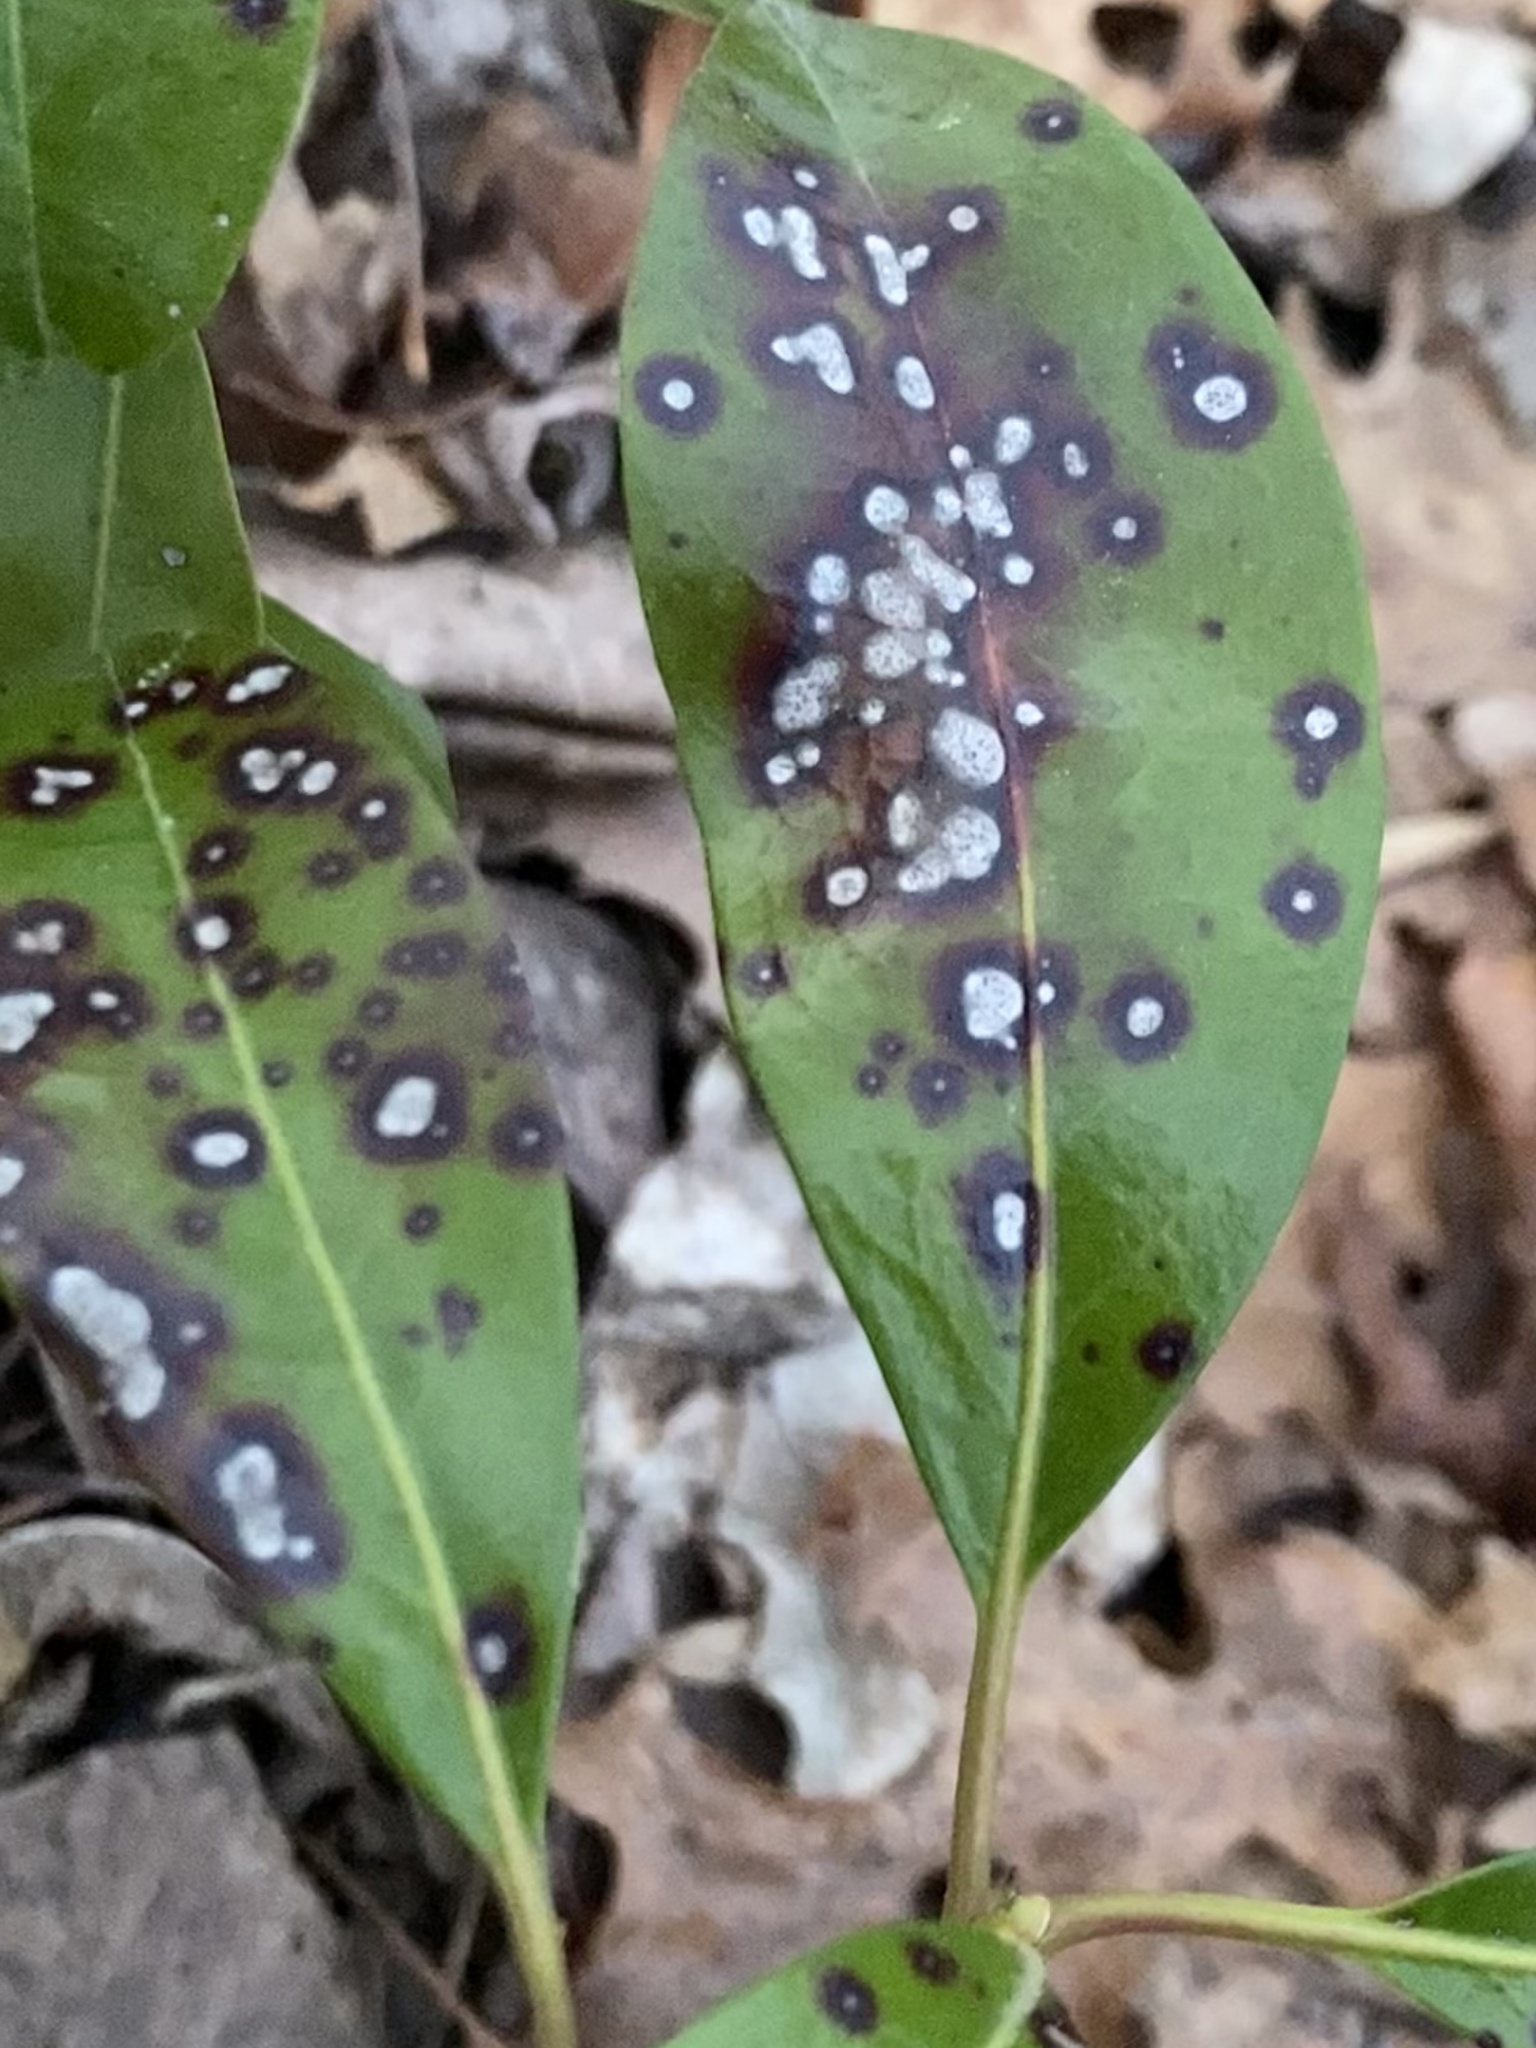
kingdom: Fungi
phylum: Ascomycota
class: Dothideomycetes
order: Mycosphaerellales
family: Mycosphaerellaceae
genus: Mycosphaerella
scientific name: Mycosphaerella colorata
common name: Mountain laurel leaf spot
